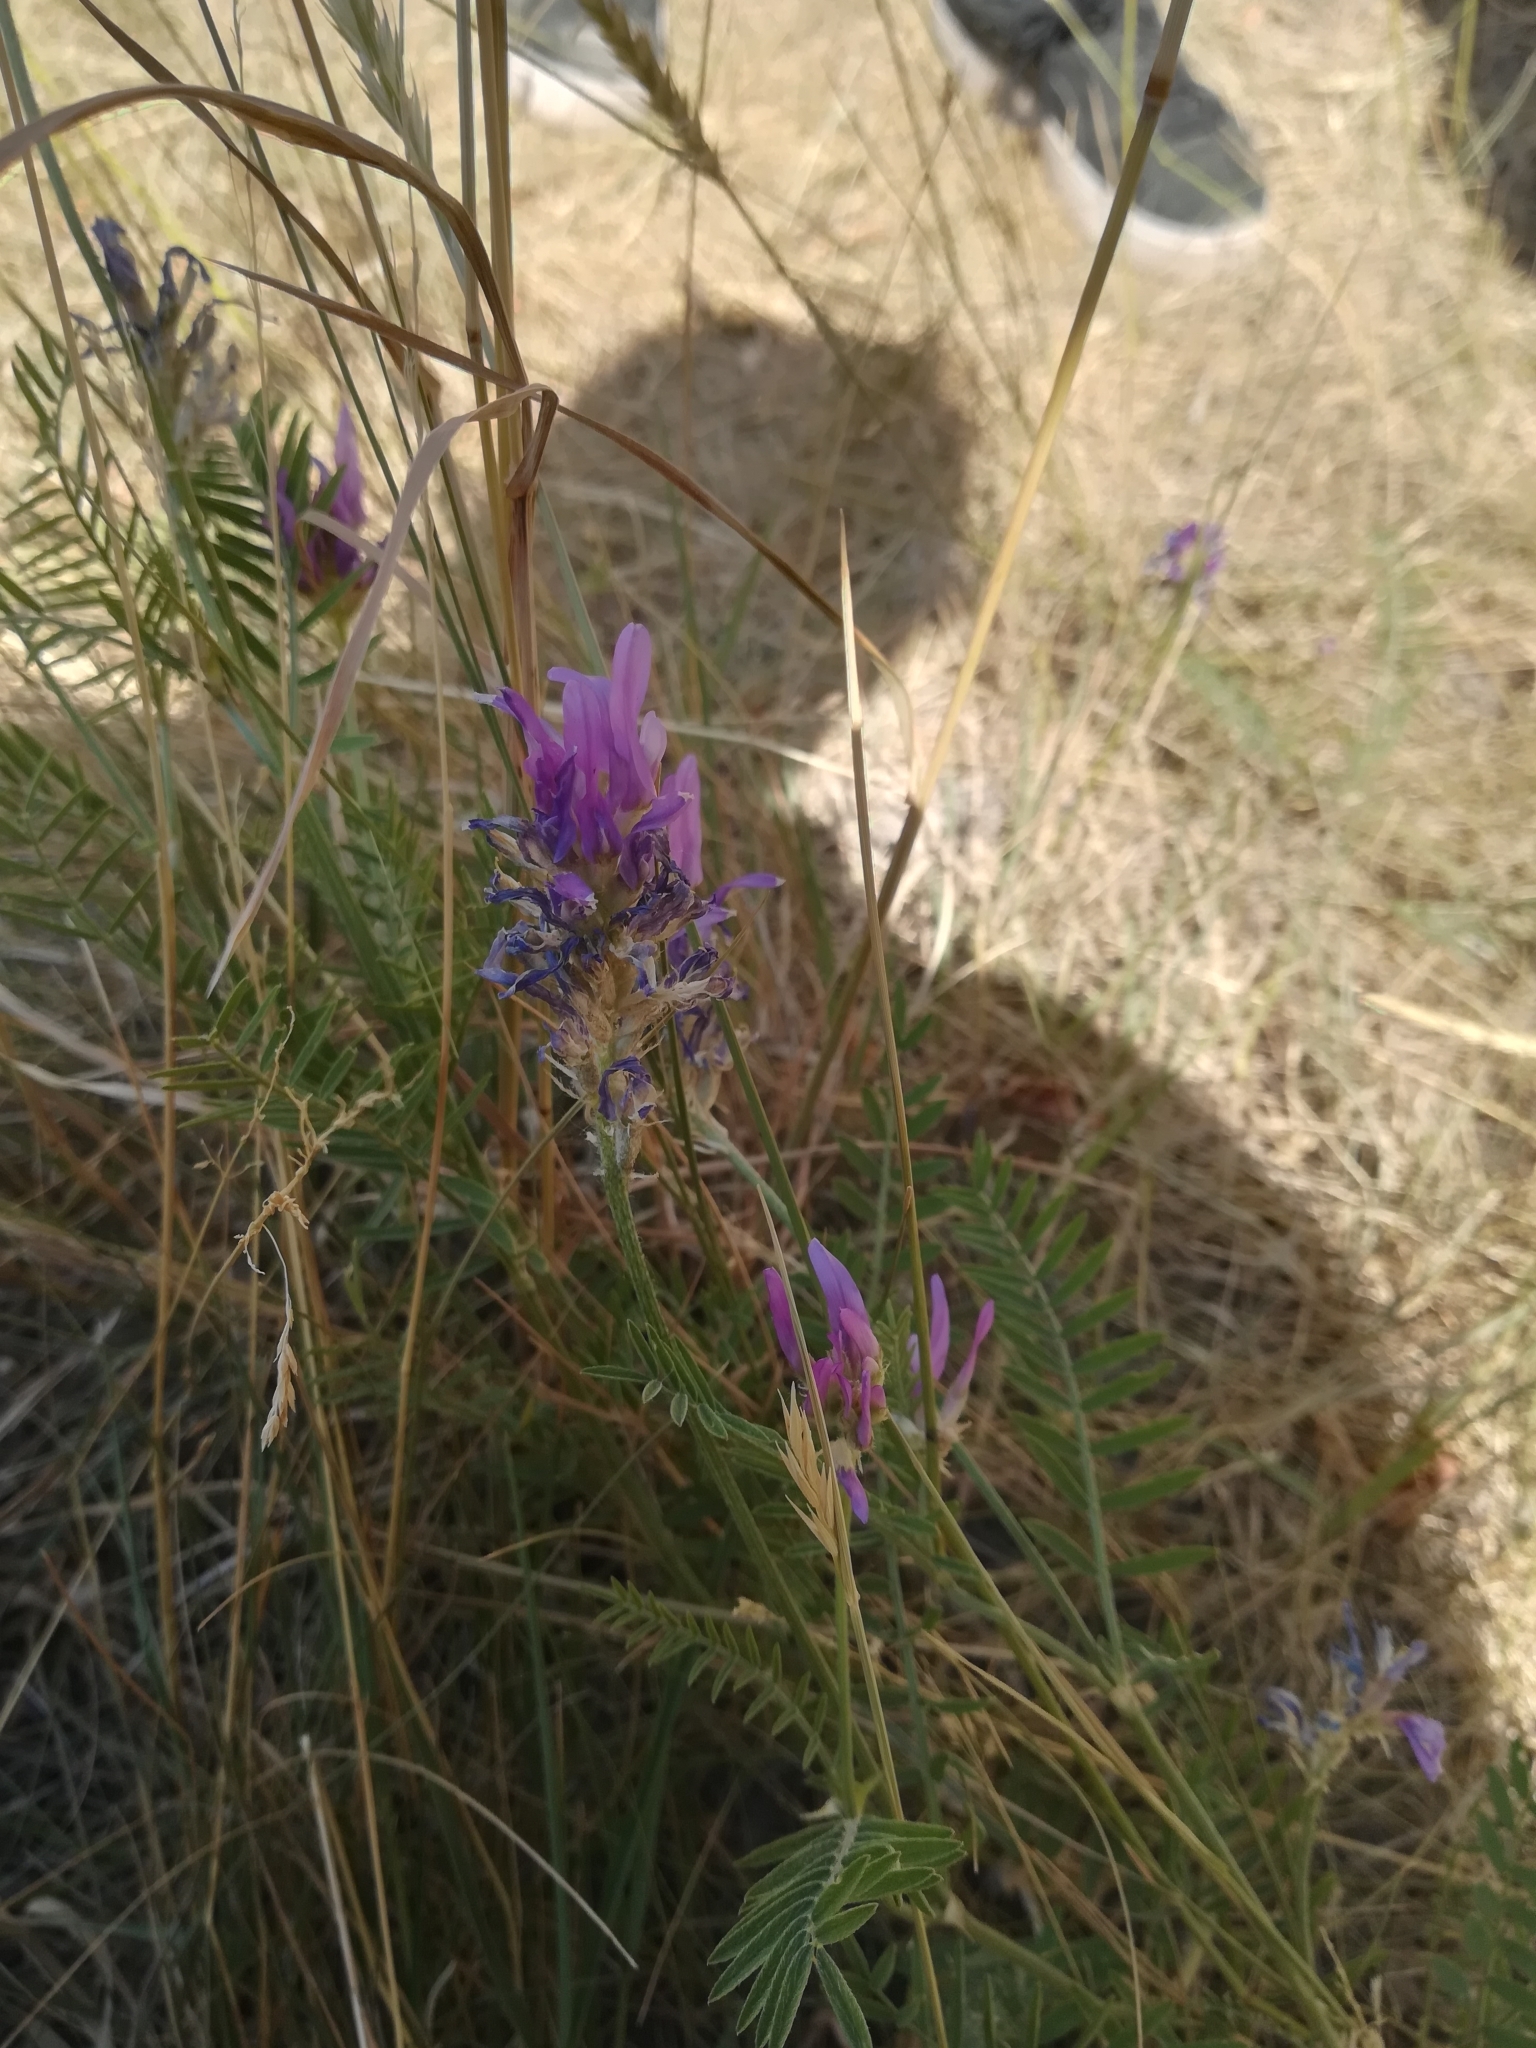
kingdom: Plantae
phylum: Tracheophyta
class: Magnoliopsida
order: Fabales
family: Fabaceae
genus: Astragalus
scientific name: Astragalus onobrychis
